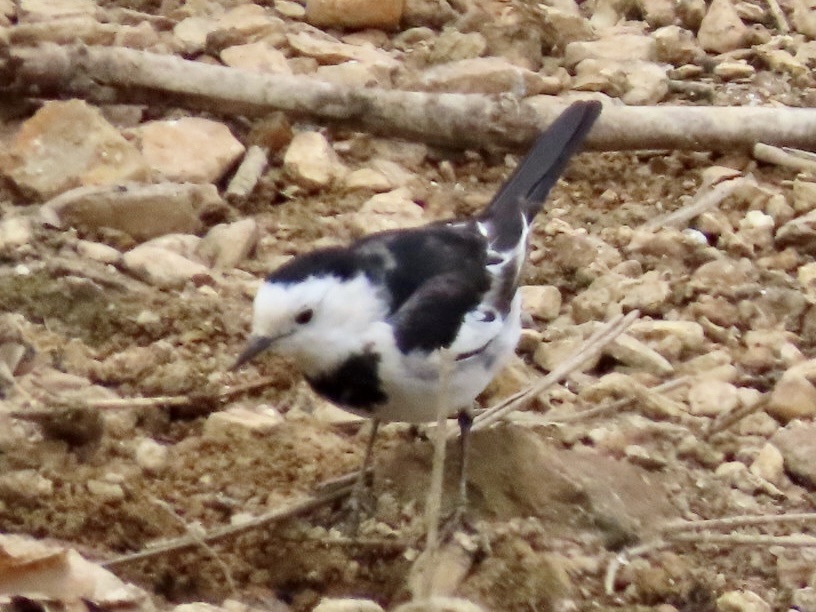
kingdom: Animalia
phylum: Chordata
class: Aves
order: Passeriformes
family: Motacillidae
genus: Motacilla
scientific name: Motacilla alba
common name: White wagtail
